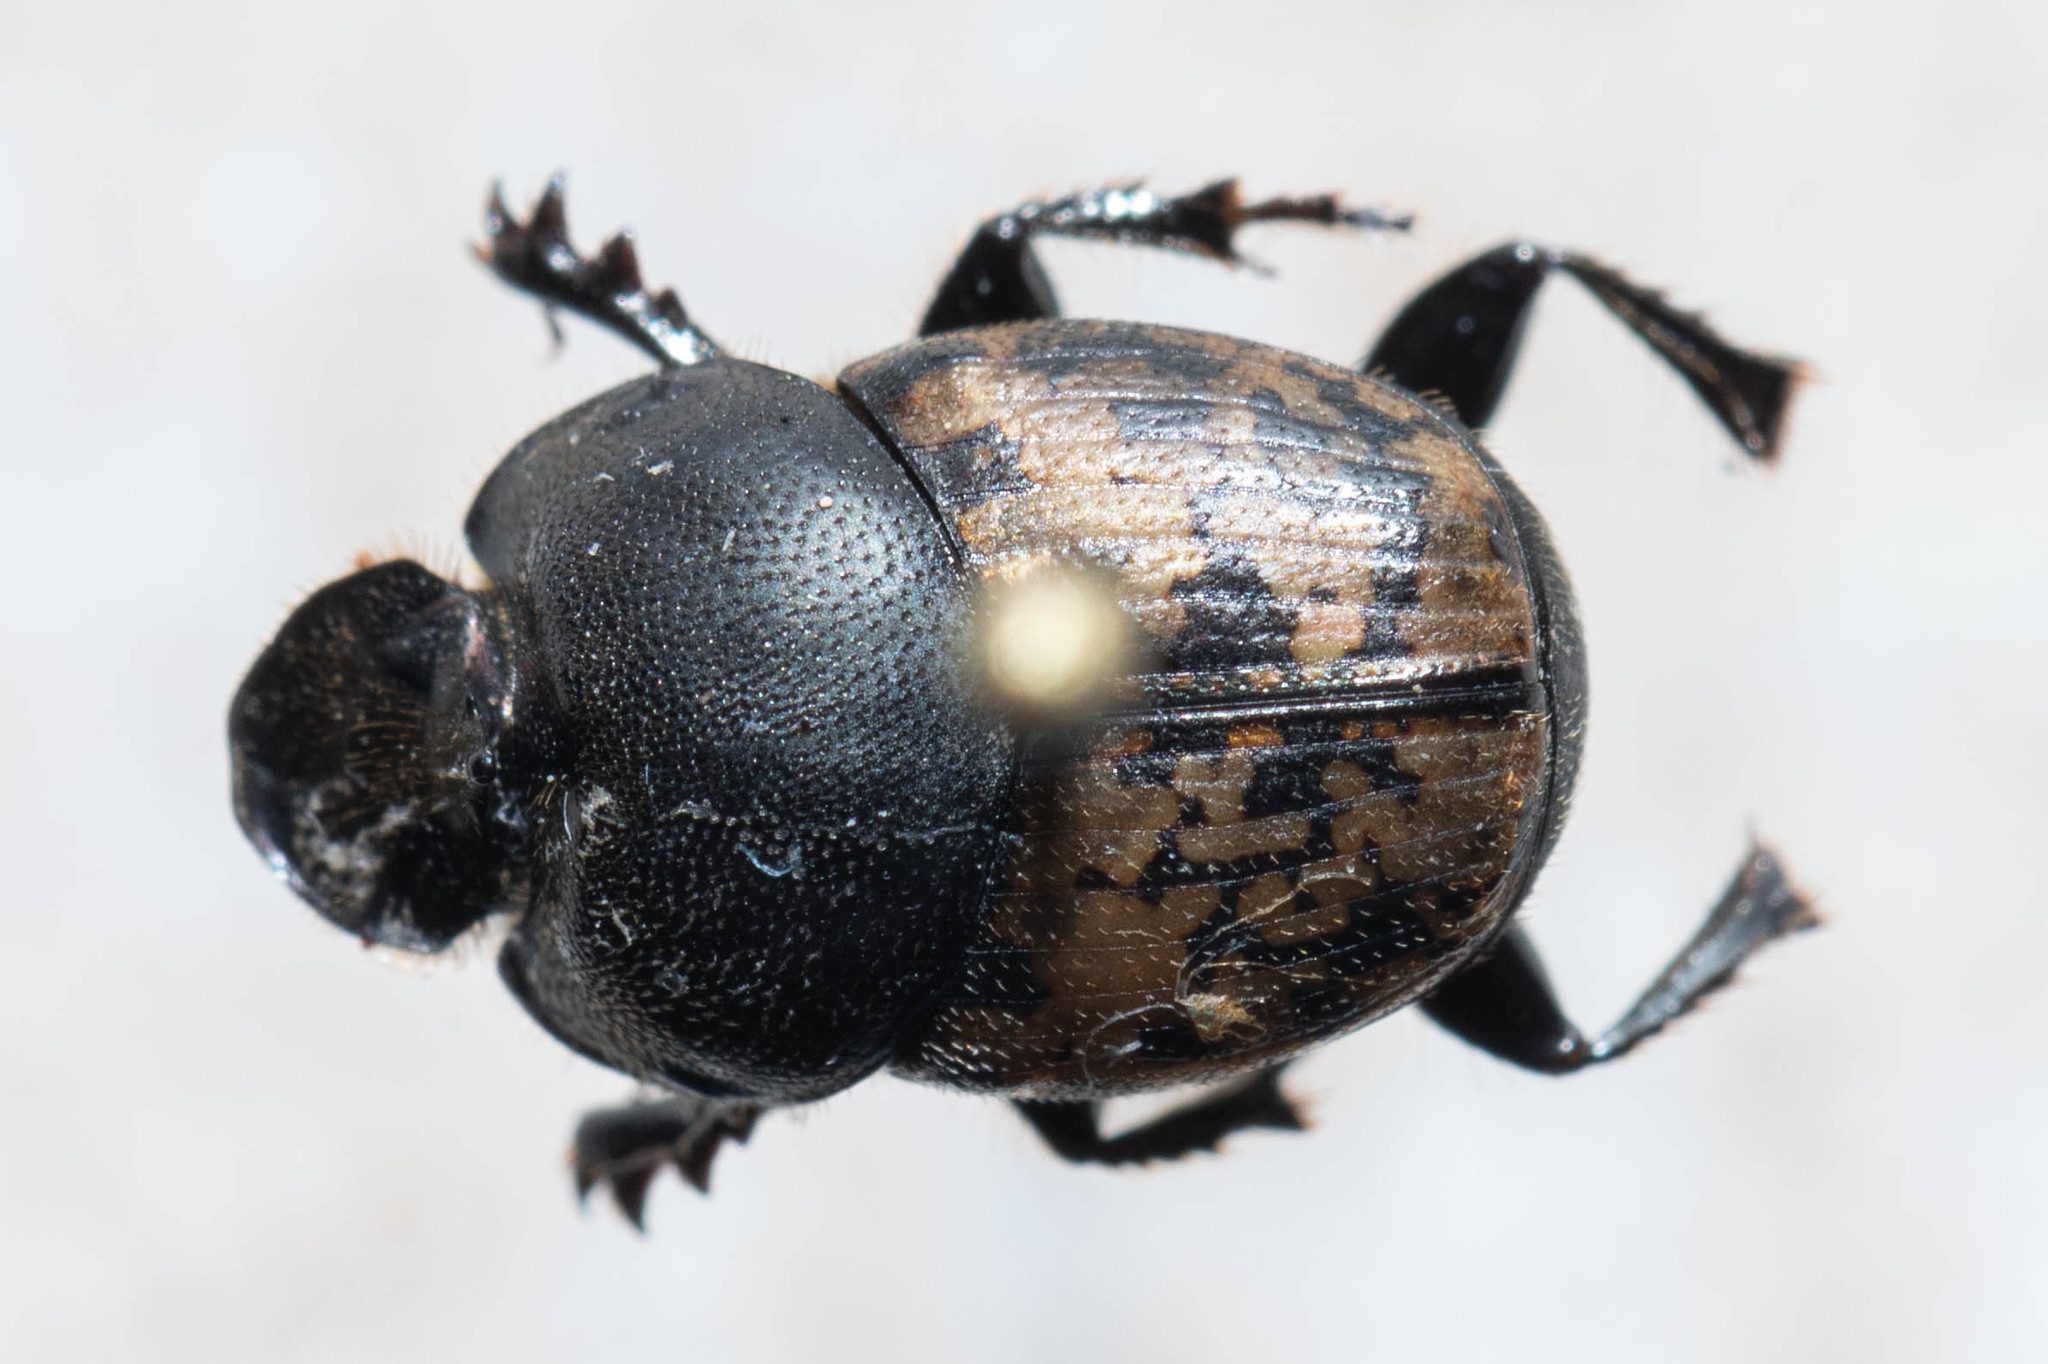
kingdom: Animalia
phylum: Arthropoda
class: Insecta
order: Coleoptera
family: Scarabaeidae
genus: Onthophagus
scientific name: Onthophagus nuchicornis
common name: Mottled dung beetle
